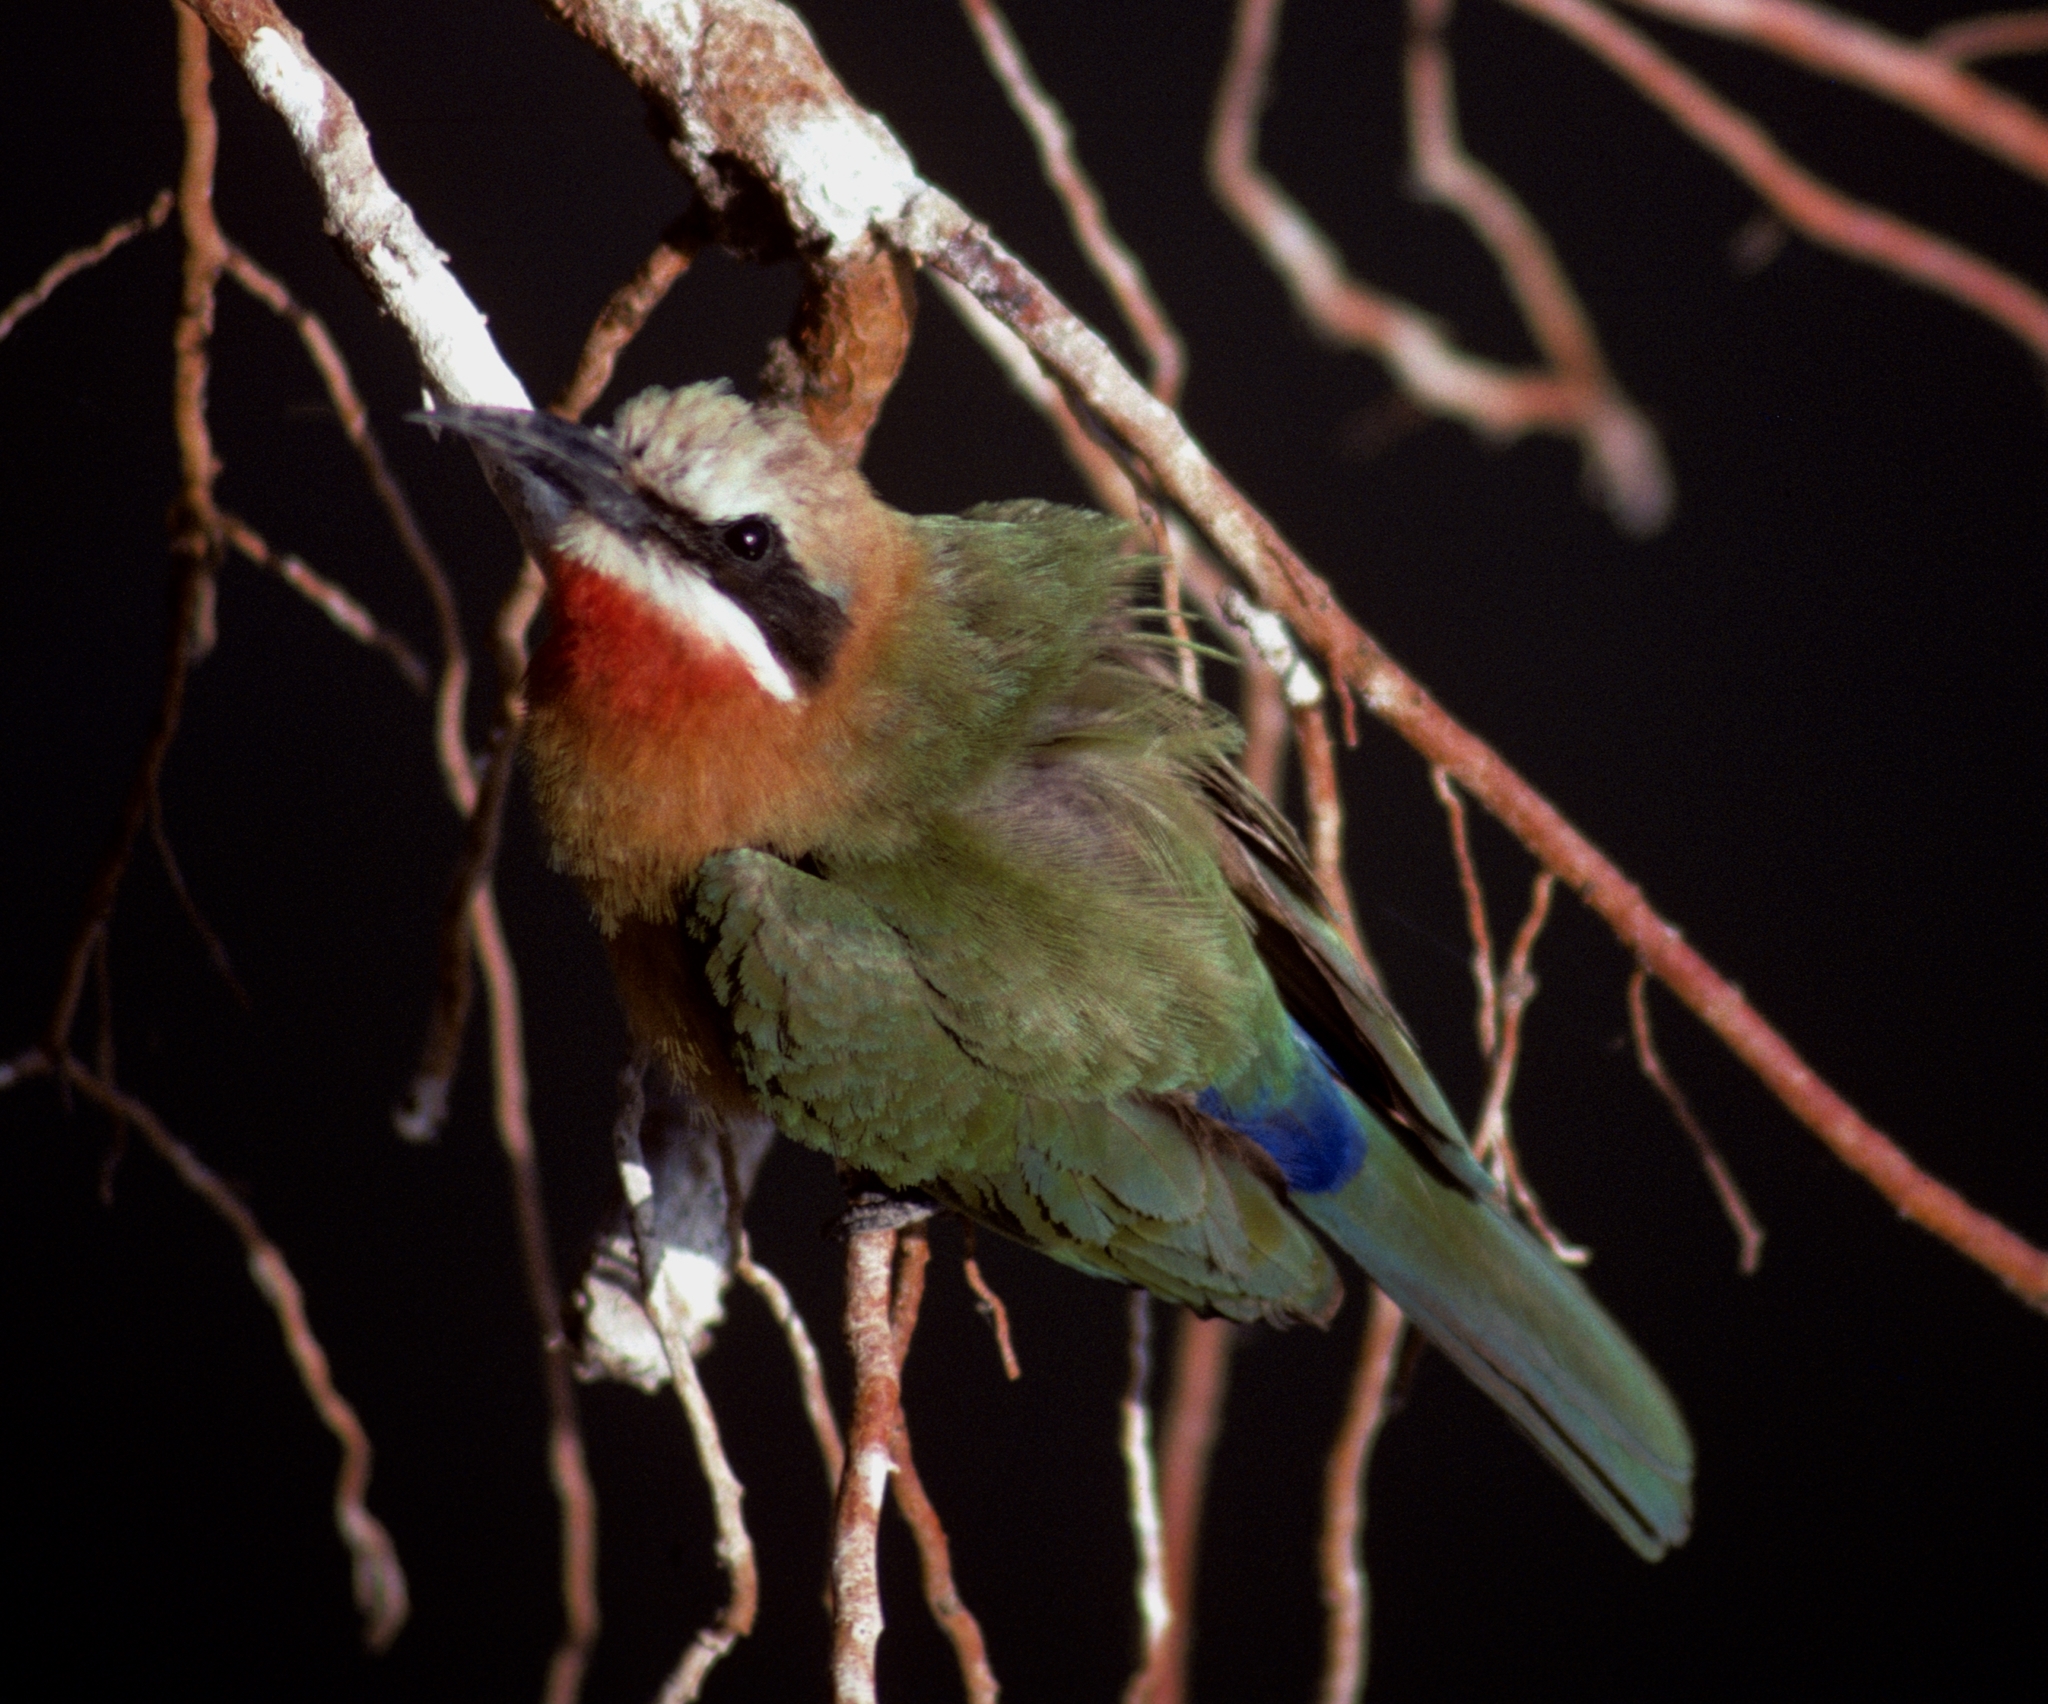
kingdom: Animalia
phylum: Chordata
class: Aves
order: Coraciiformes
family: Meropidae
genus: Merops
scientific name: Merops bullockoides
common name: White-fronted bee-eater
